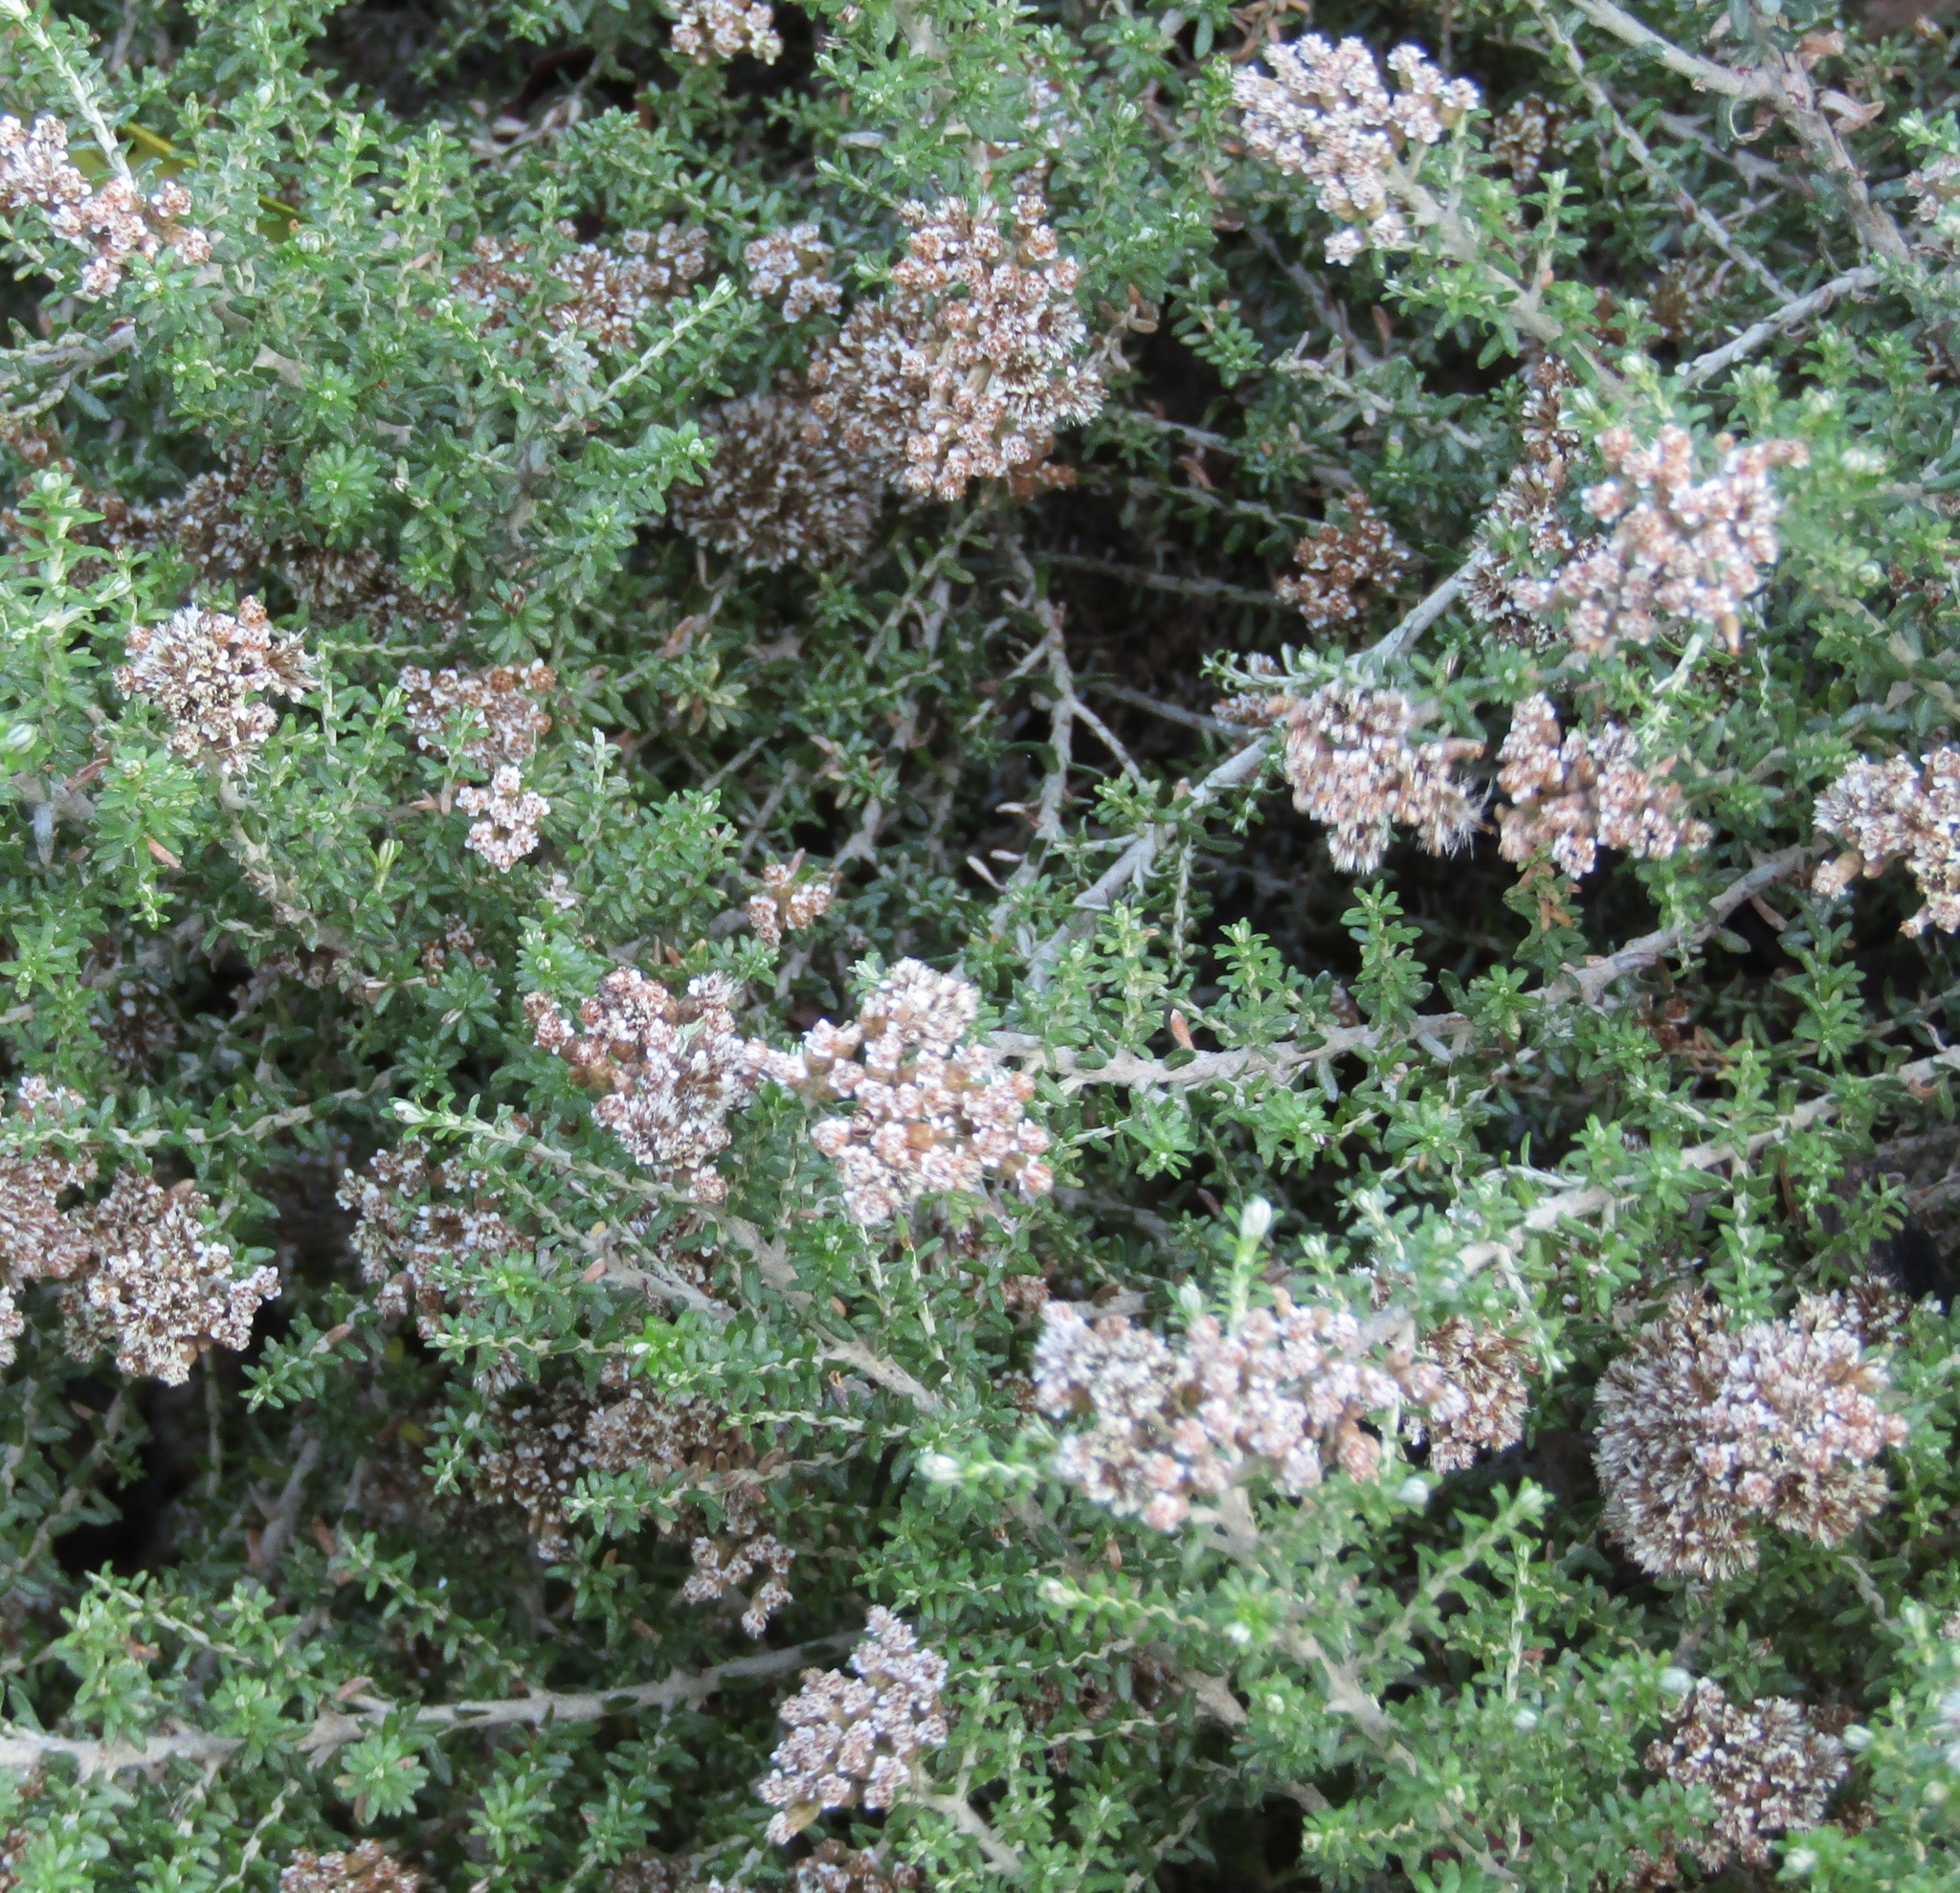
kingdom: Plantae
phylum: Tracheophyta
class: Magnoliopsida
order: Asterales
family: Asteraceae
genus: Ozothamnus
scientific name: Ozothamnus leptophyllus
